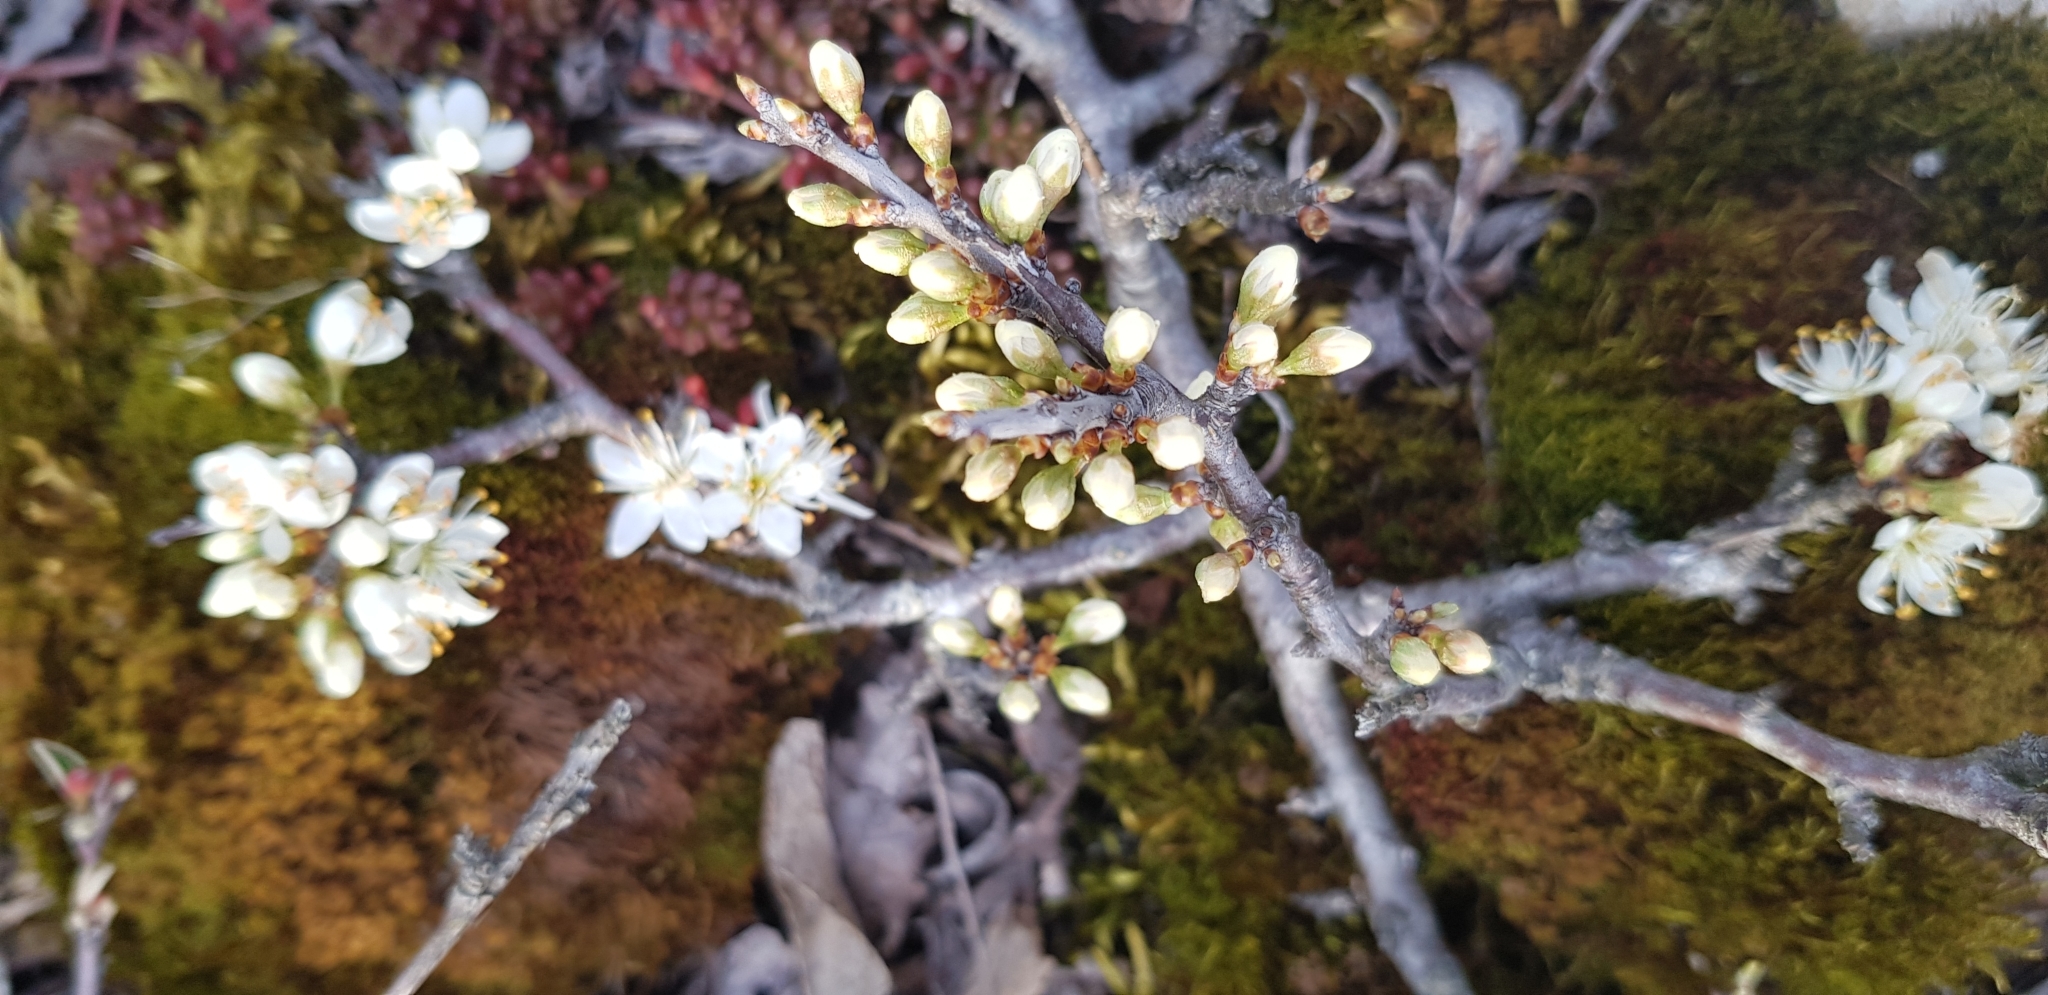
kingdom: Plantae
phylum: Tracheophyta
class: Magnoliopsida
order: Rosales
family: Rosaceae
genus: Prunus
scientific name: Prunus spinosa
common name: Blackthorn
